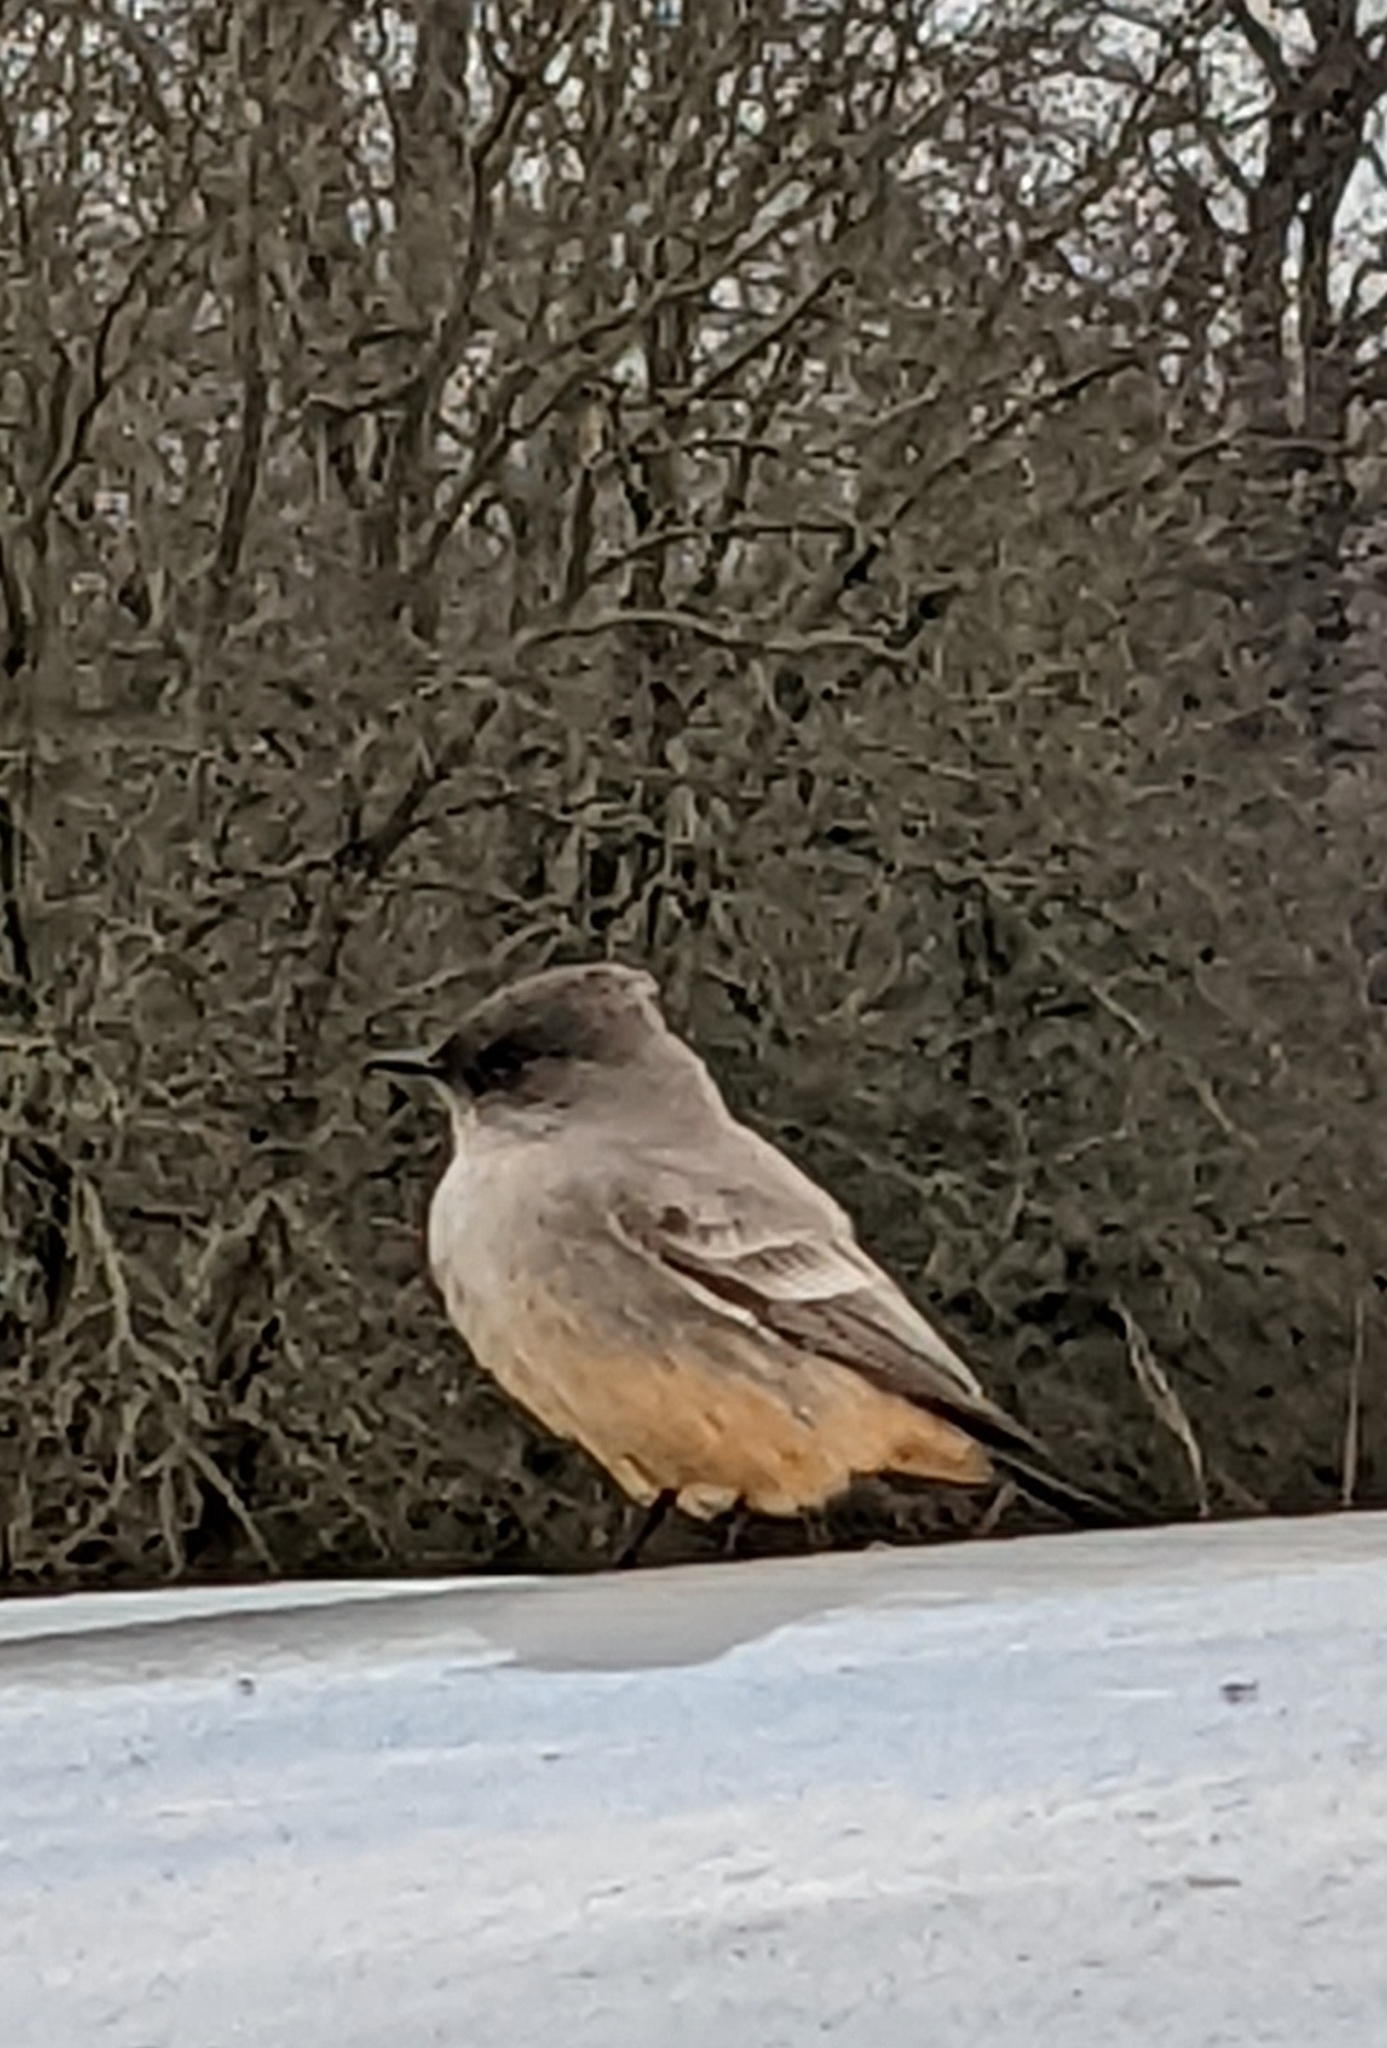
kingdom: Animalia
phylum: Chordata
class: Aves
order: Passeriformes
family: Tyrannidae
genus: Sayornis
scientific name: Sayornis saya
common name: Say's phoebe
